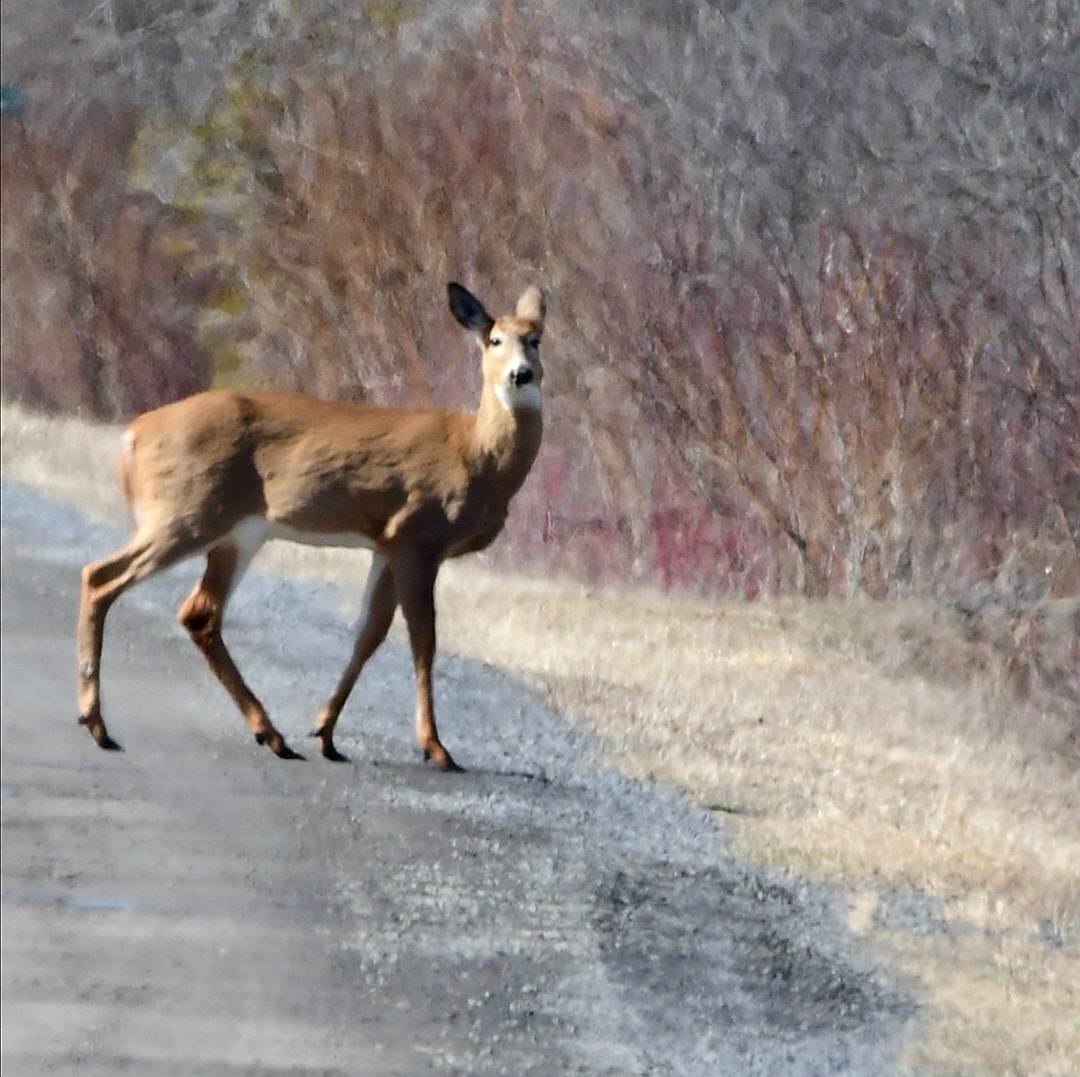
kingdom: Animalia
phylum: Chordata
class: Mammalia
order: Artiodactyla
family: Cervidae
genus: Odocoileus
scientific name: Odocoileus virginianus
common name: White-tailed deer
